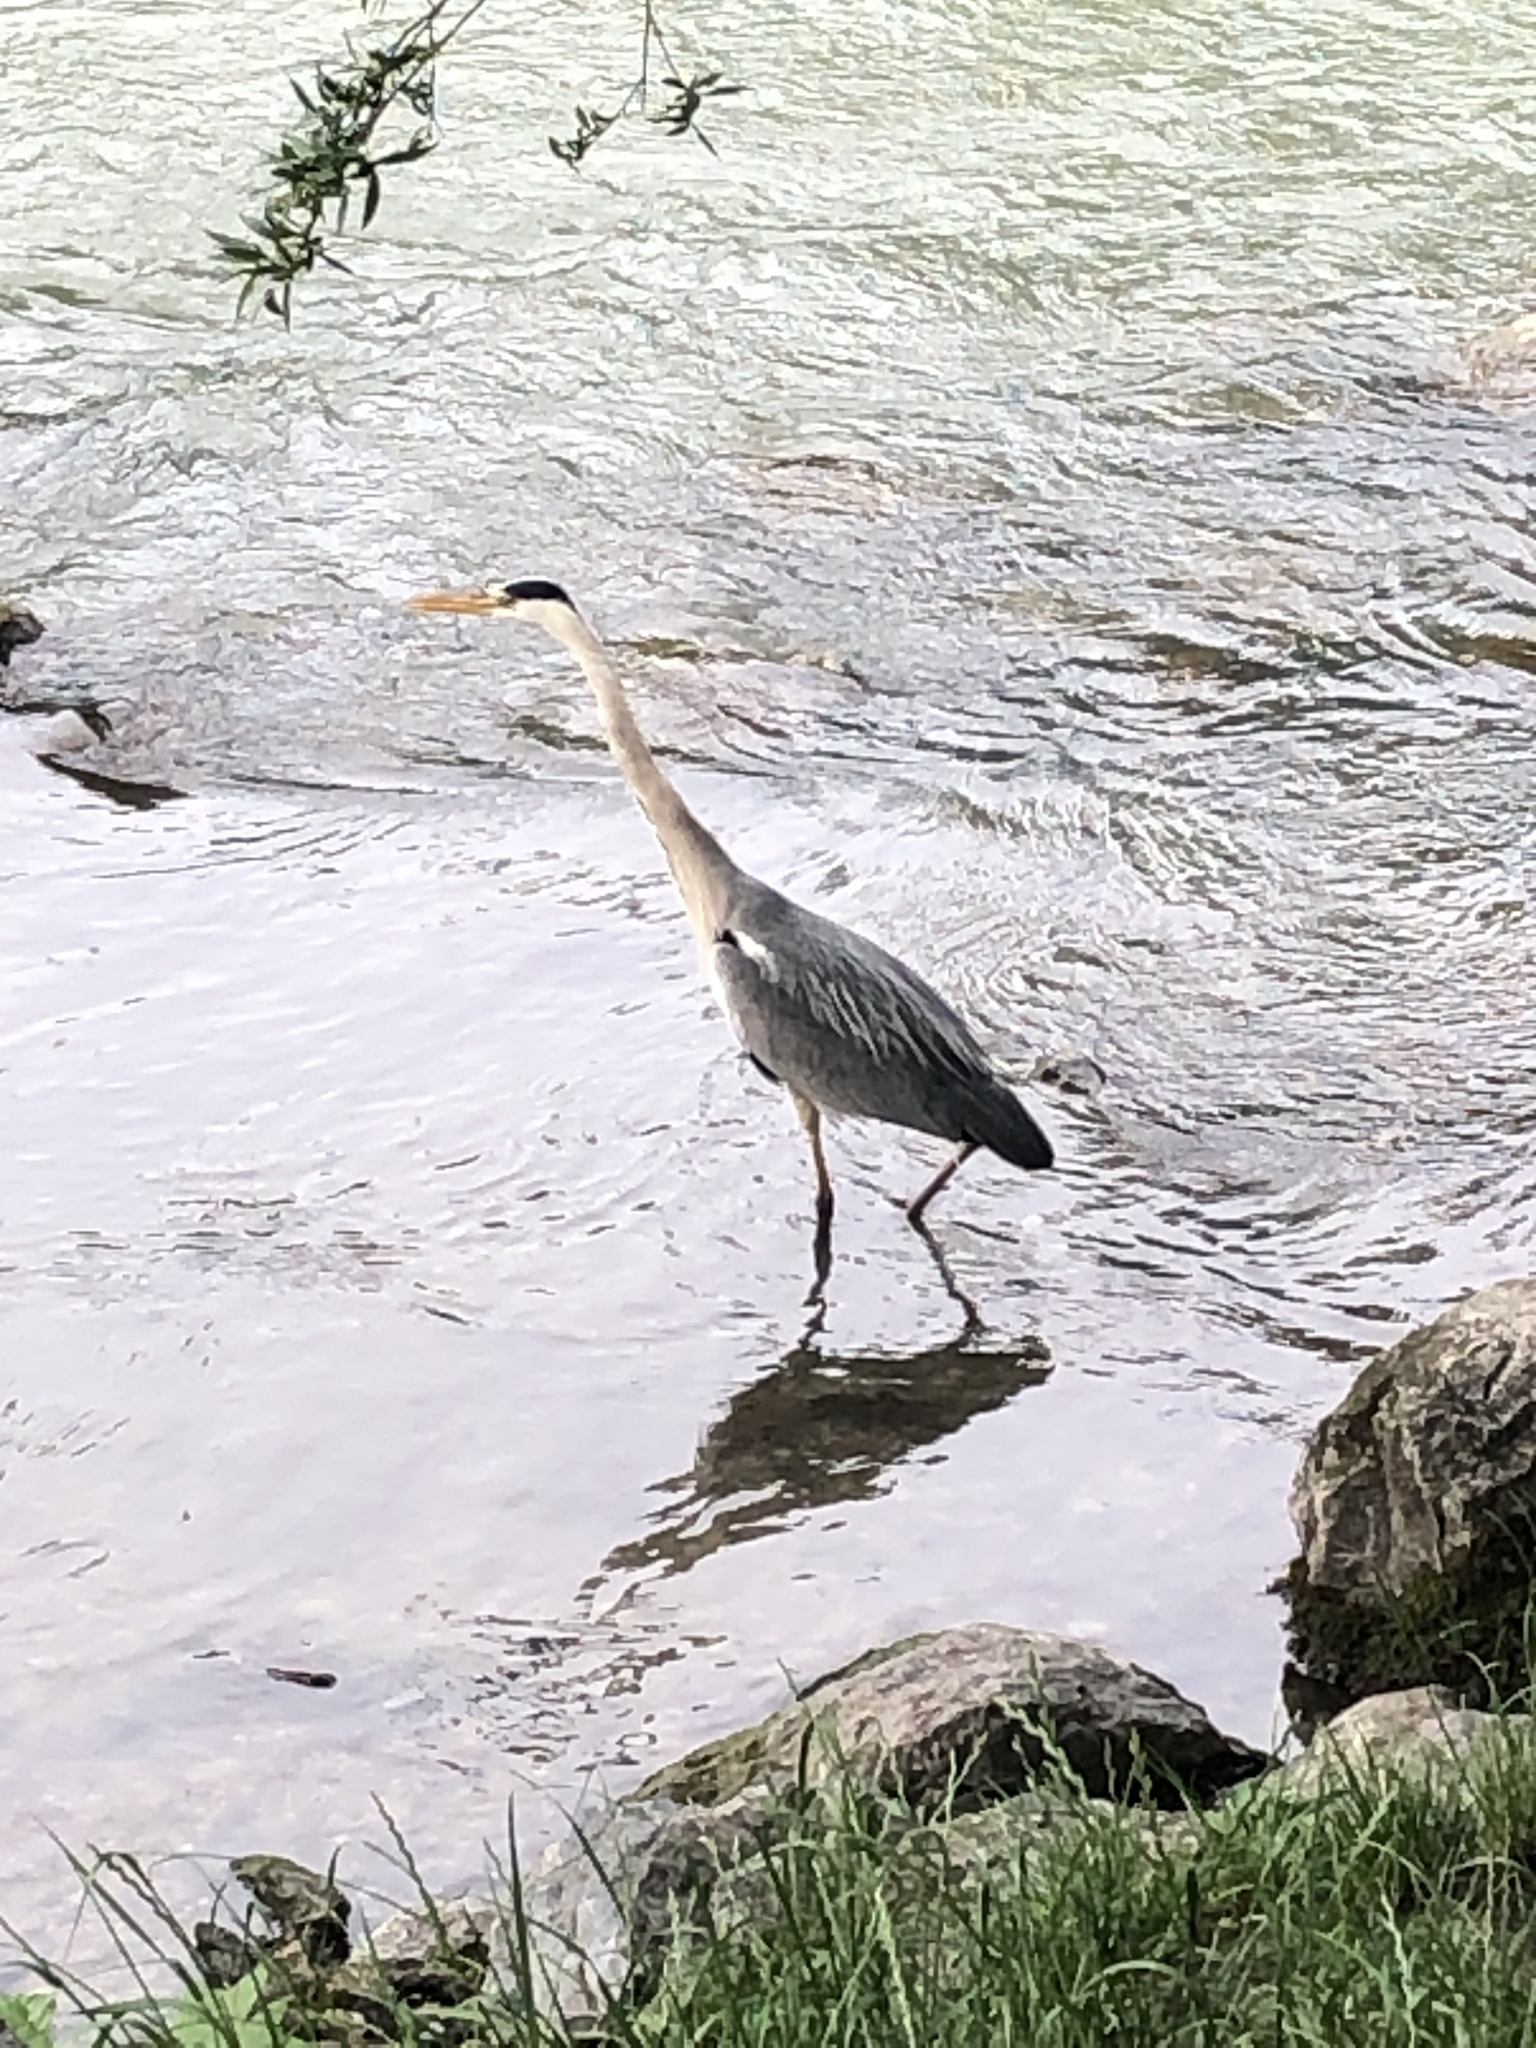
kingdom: Animalia
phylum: Chordata
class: Aves
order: Pelecaniformes
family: Ardeidae
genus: Ardea
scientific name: Ardea cinerea
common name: Grey heron
